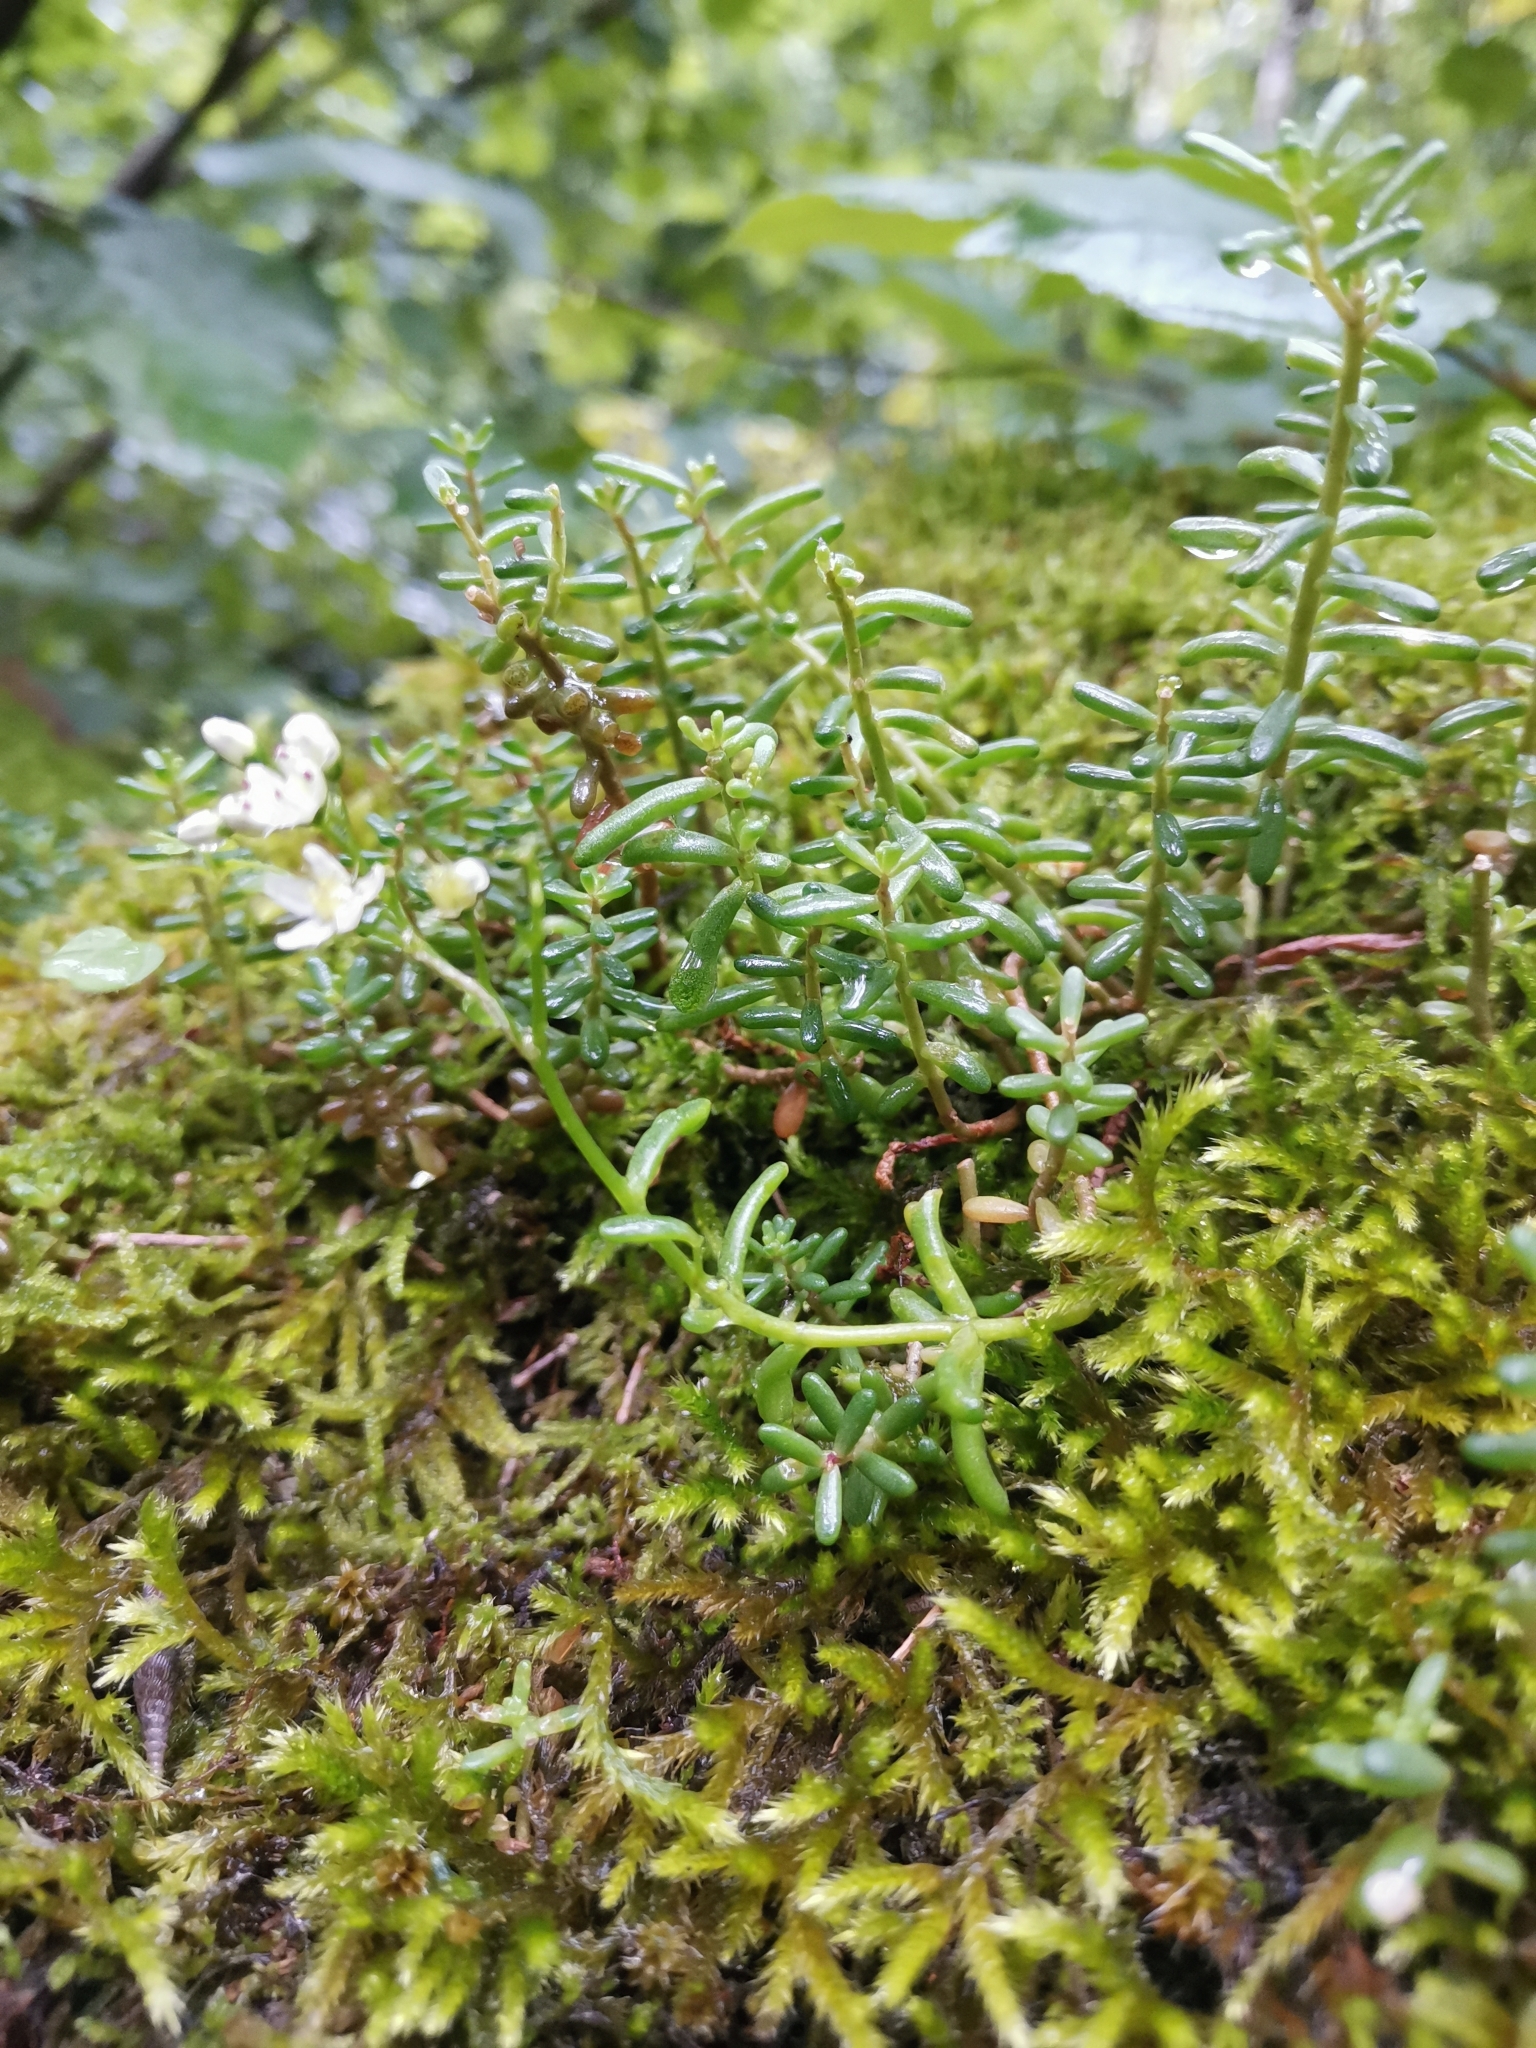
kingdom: Plantae
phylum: Tracheophyta
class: Magnoliopsida
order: Saxifragales
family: Crassulaceae
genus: Sedum
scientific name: Sedum album
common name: White stonecrop
